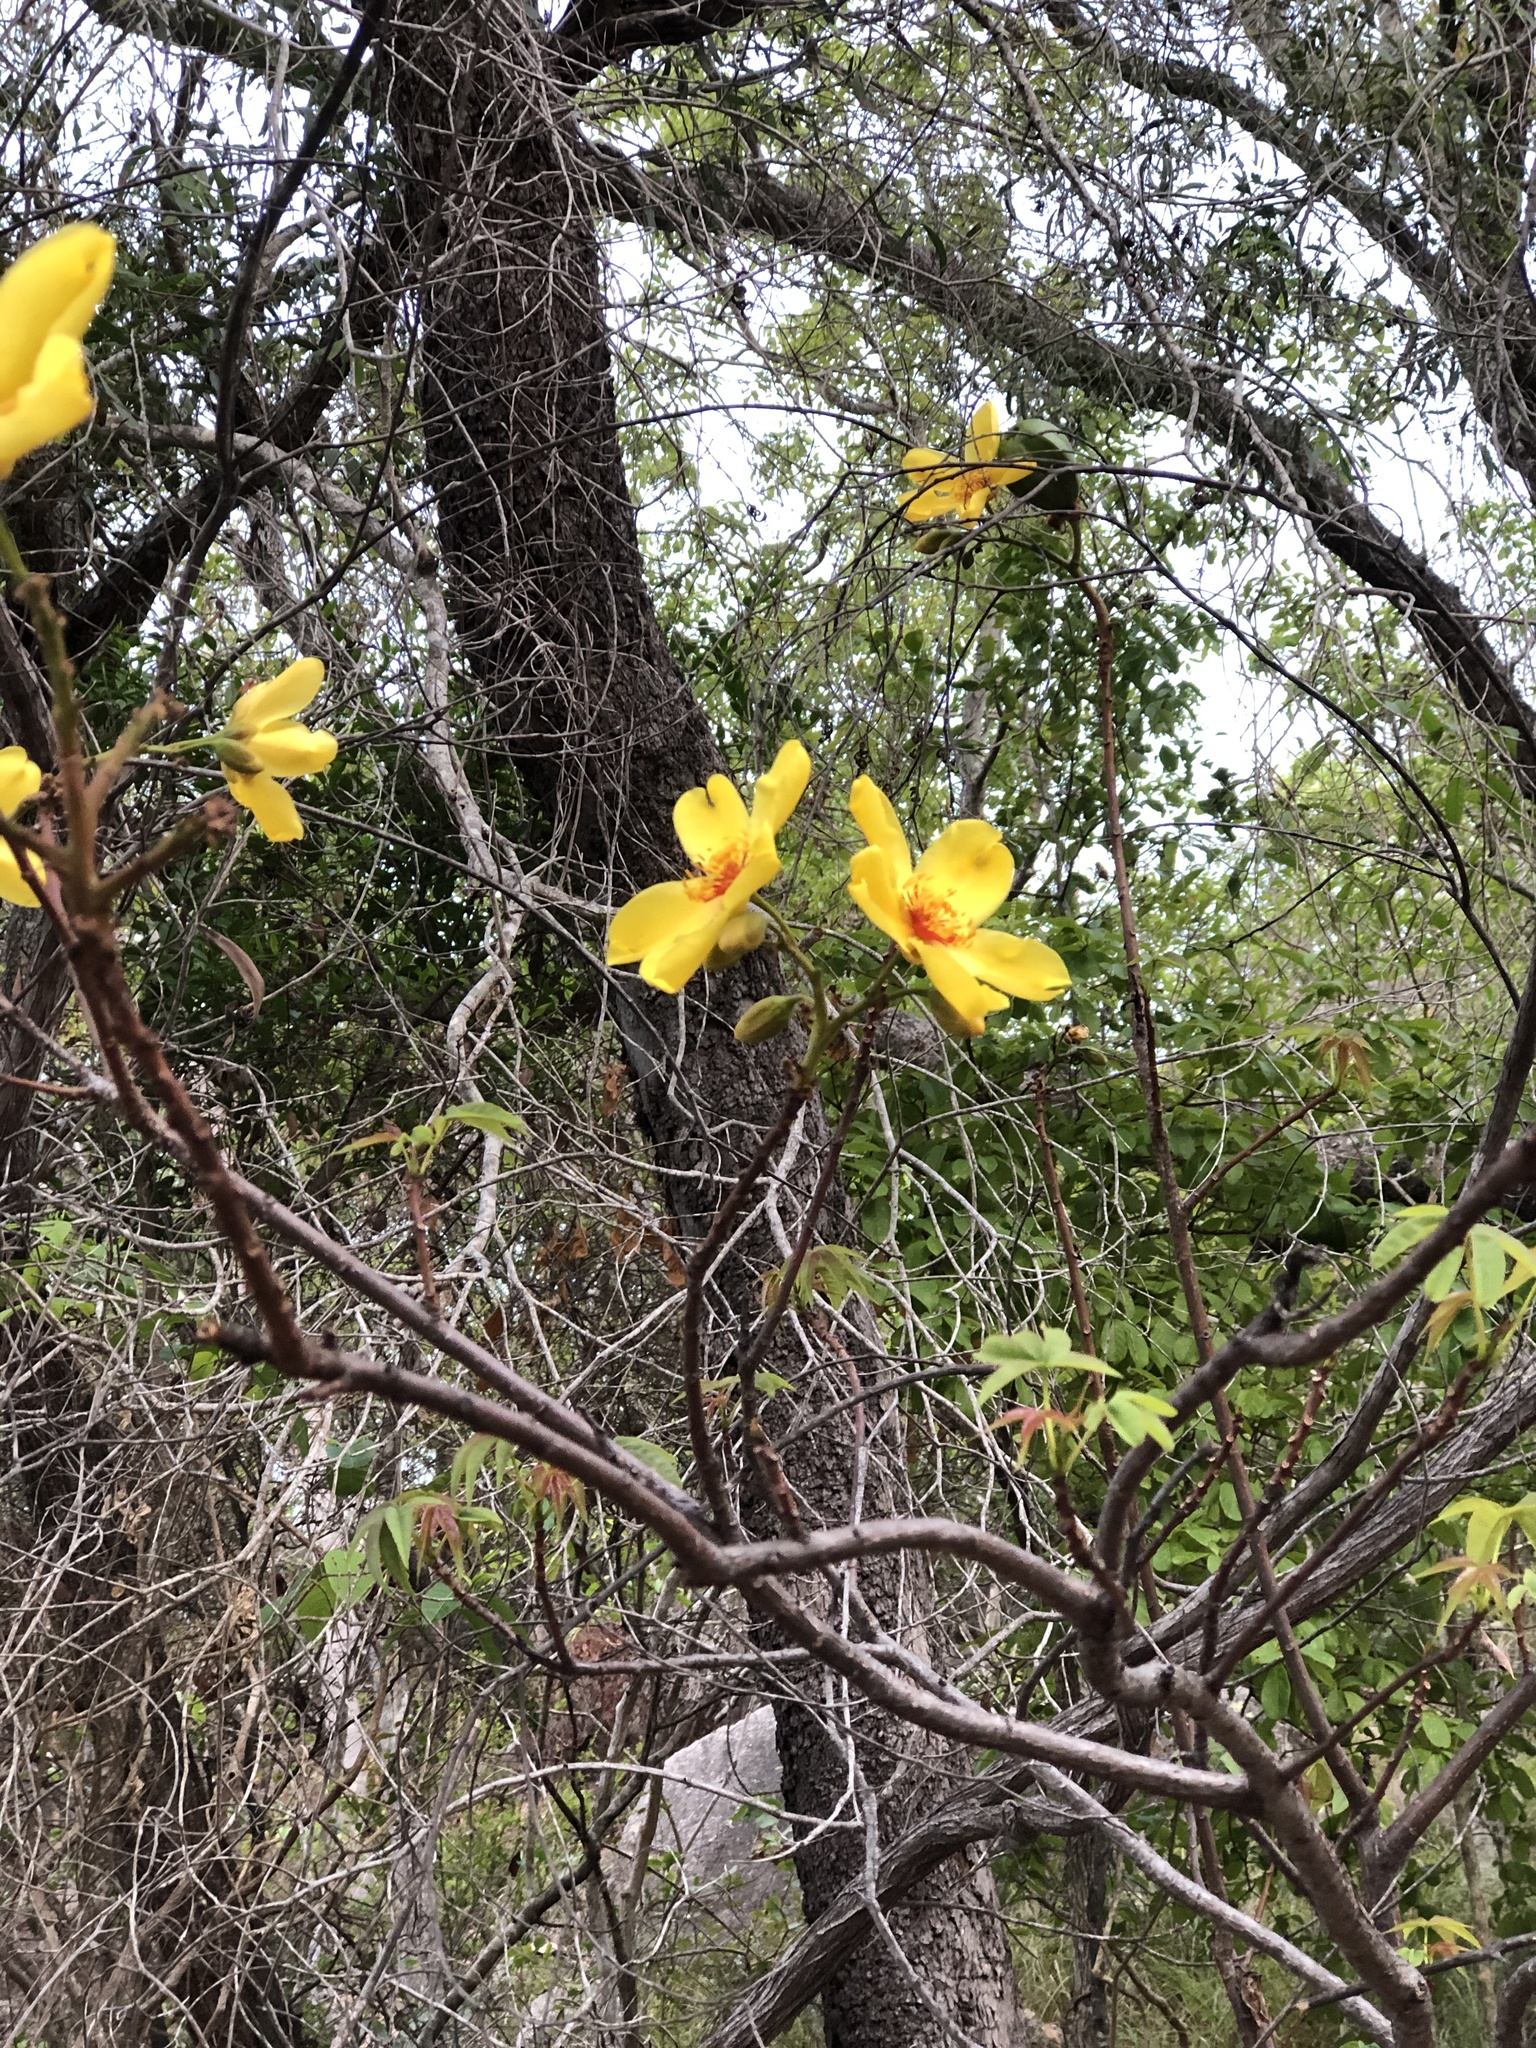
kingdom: Plantae
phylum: Tracheophyta
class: Magnoliopsida
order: Malvales
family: Cochlospermaceae
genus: Cochlospermum
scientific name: Cochlospermum gillivraei
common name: Cottontree
